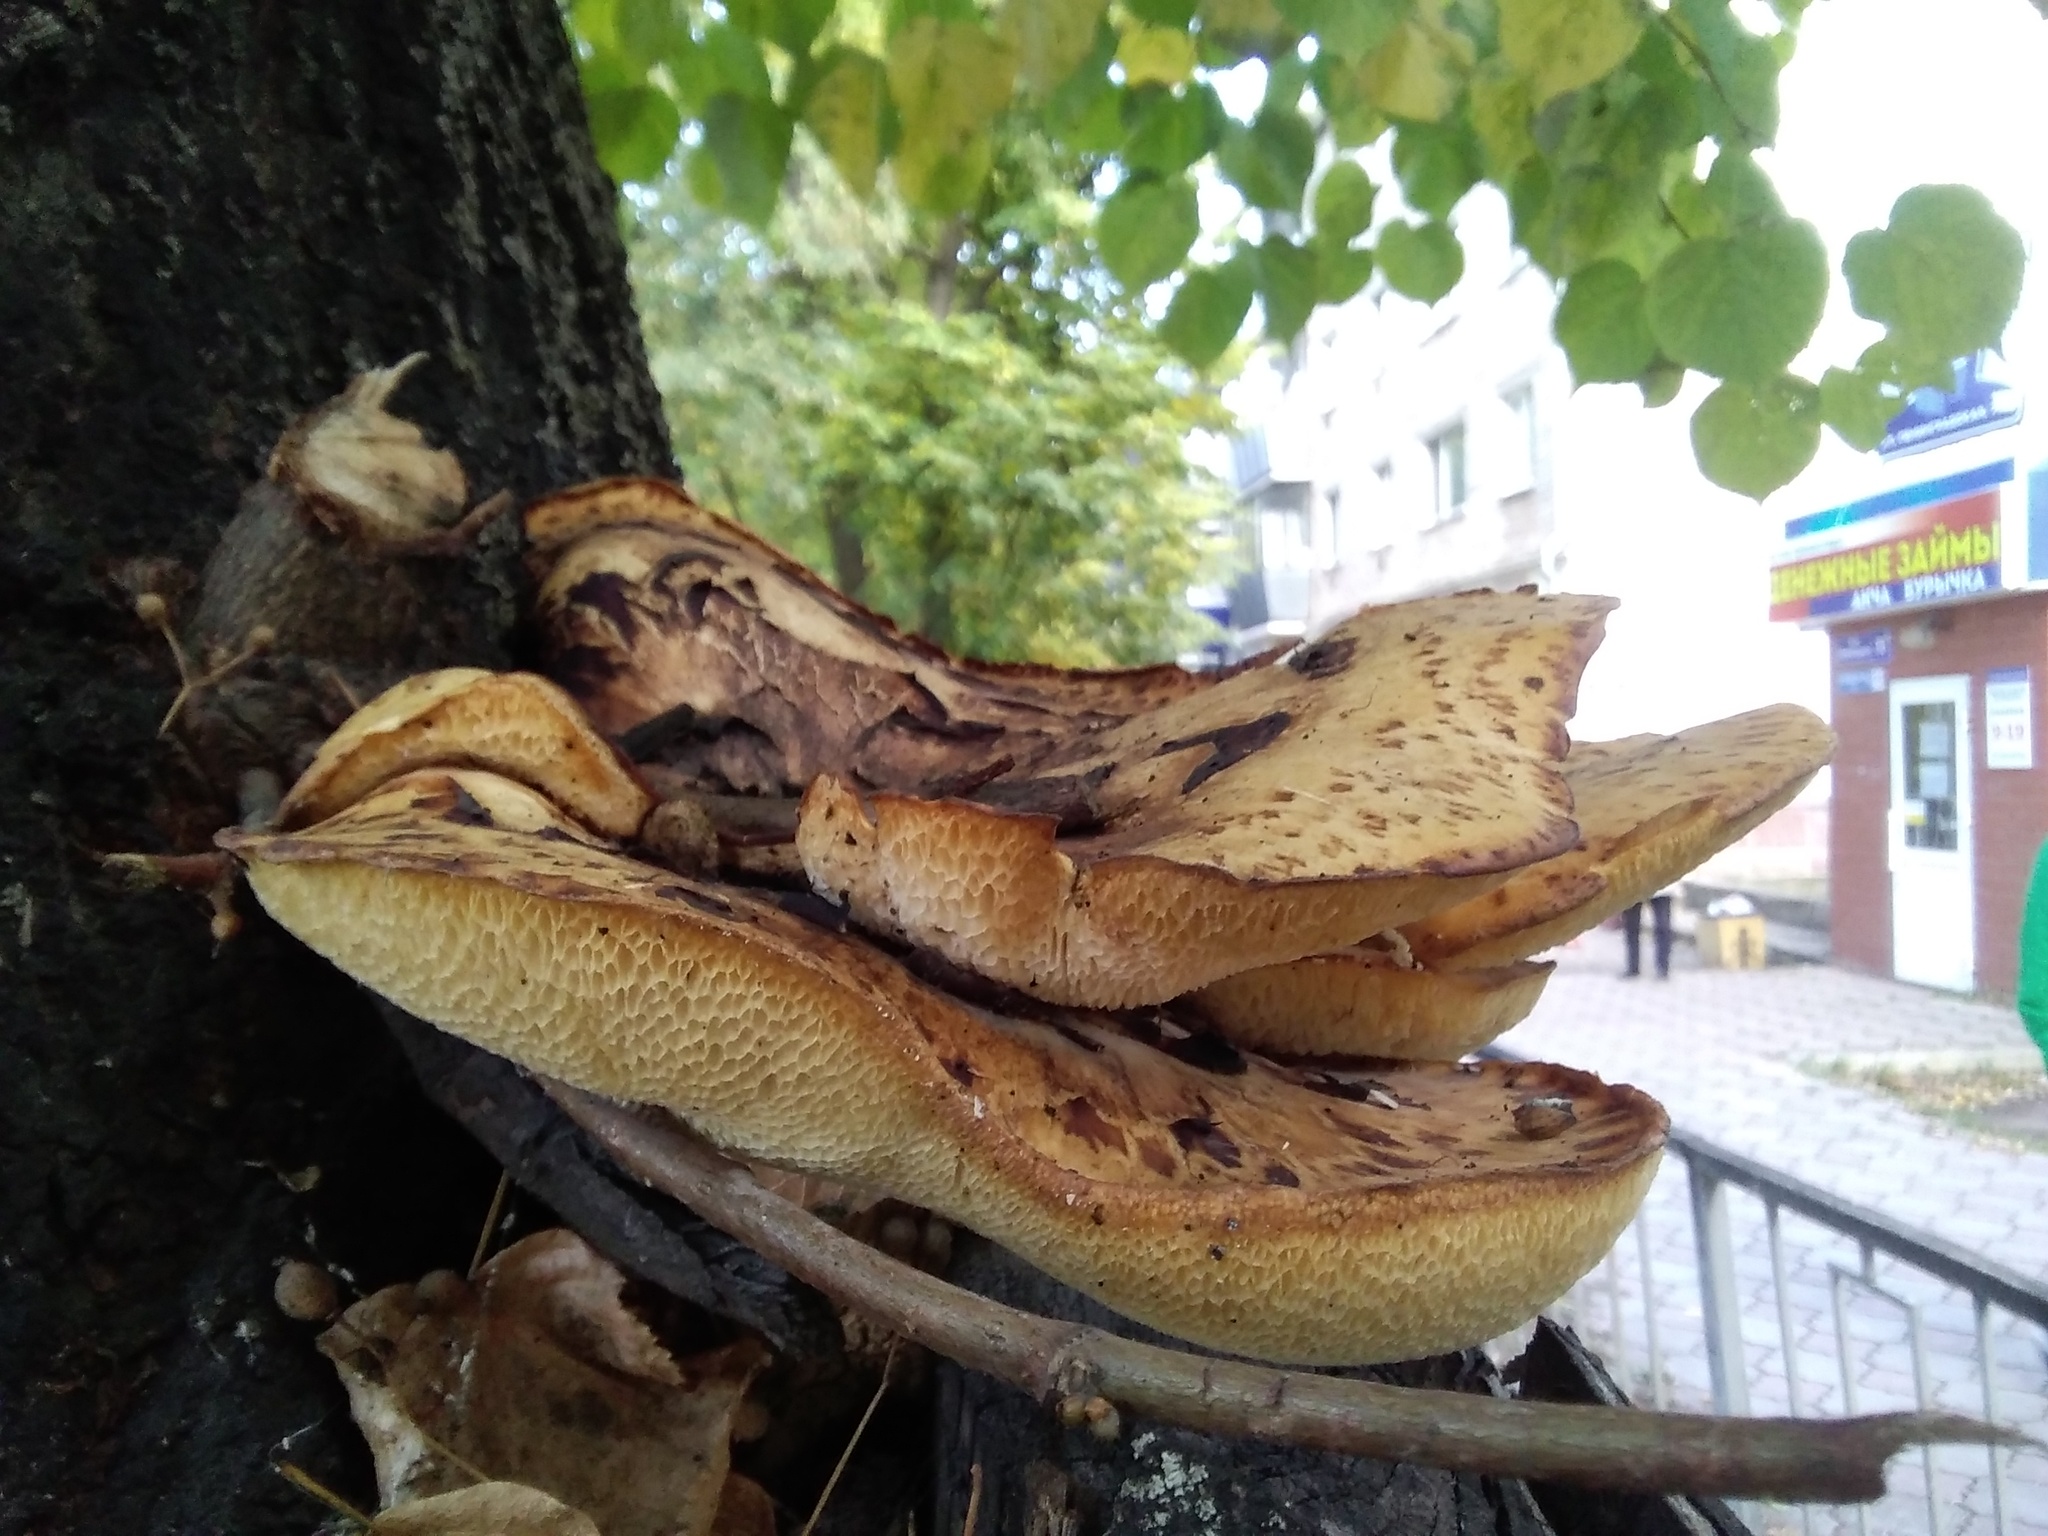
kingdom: Fungi
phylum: Basidiomycota
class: Agaricomycetes
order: Polyporales
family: Polyporaceae
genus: Cerioporus
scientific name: Cerioporus squamosus
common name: Dryad's saddle
